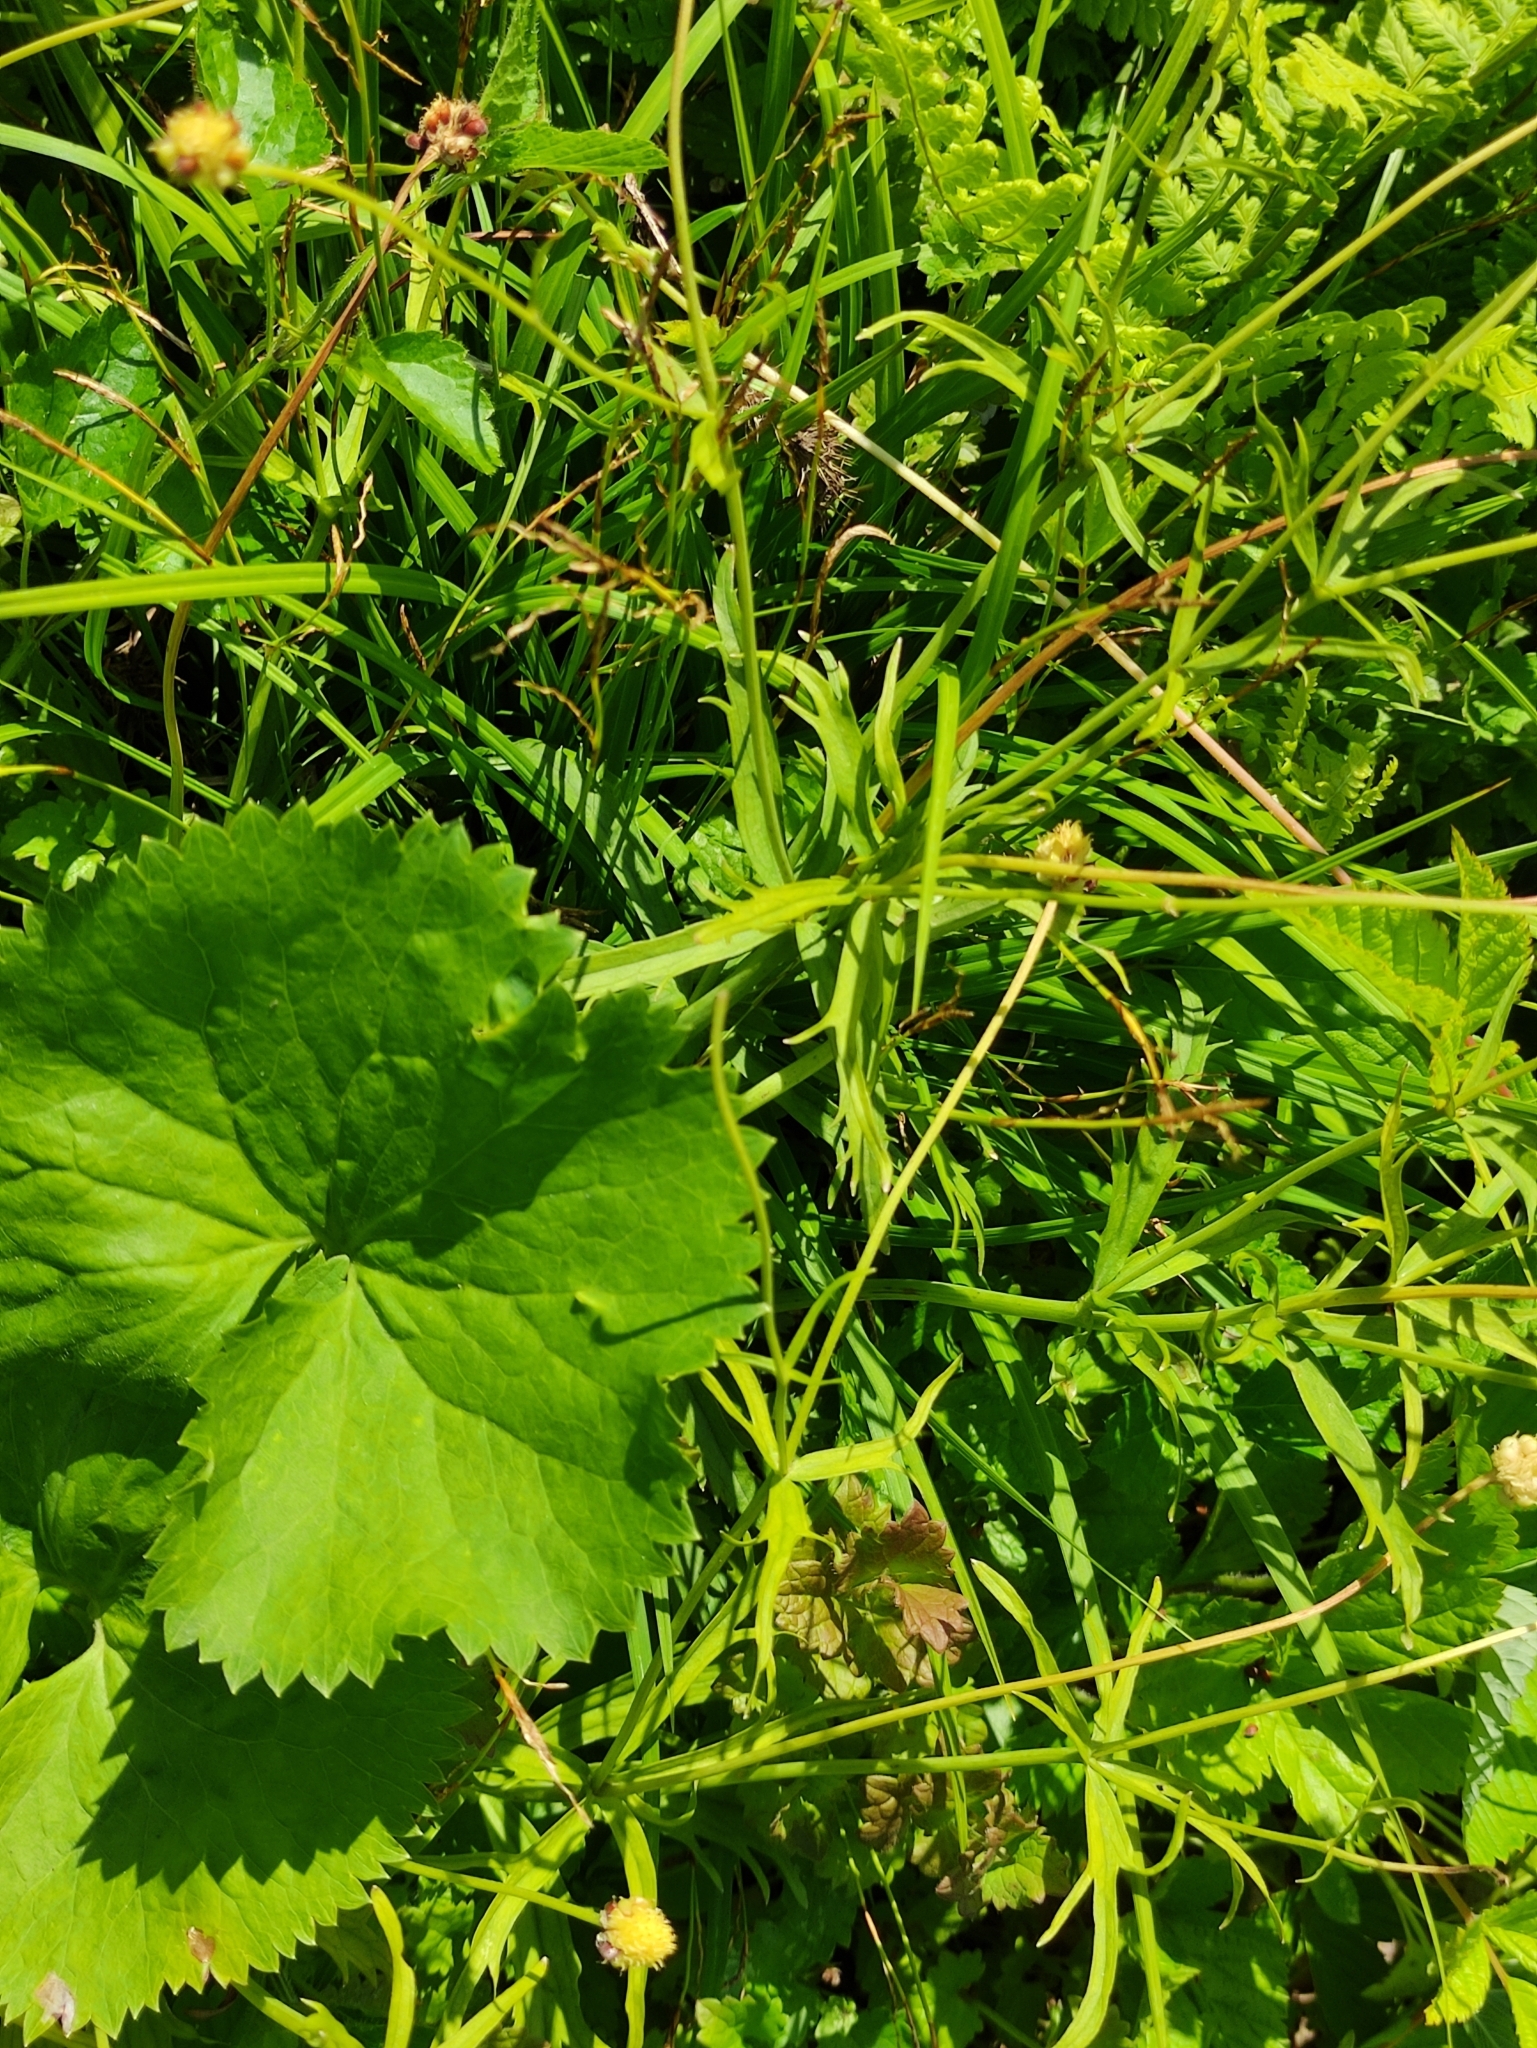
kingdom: Plantae
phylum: Tracheophyta
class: Magnoliopsida
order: Ranunculales
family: Ranunculaceae
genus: Ranunculus
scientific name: Ranunculus cassubicus
